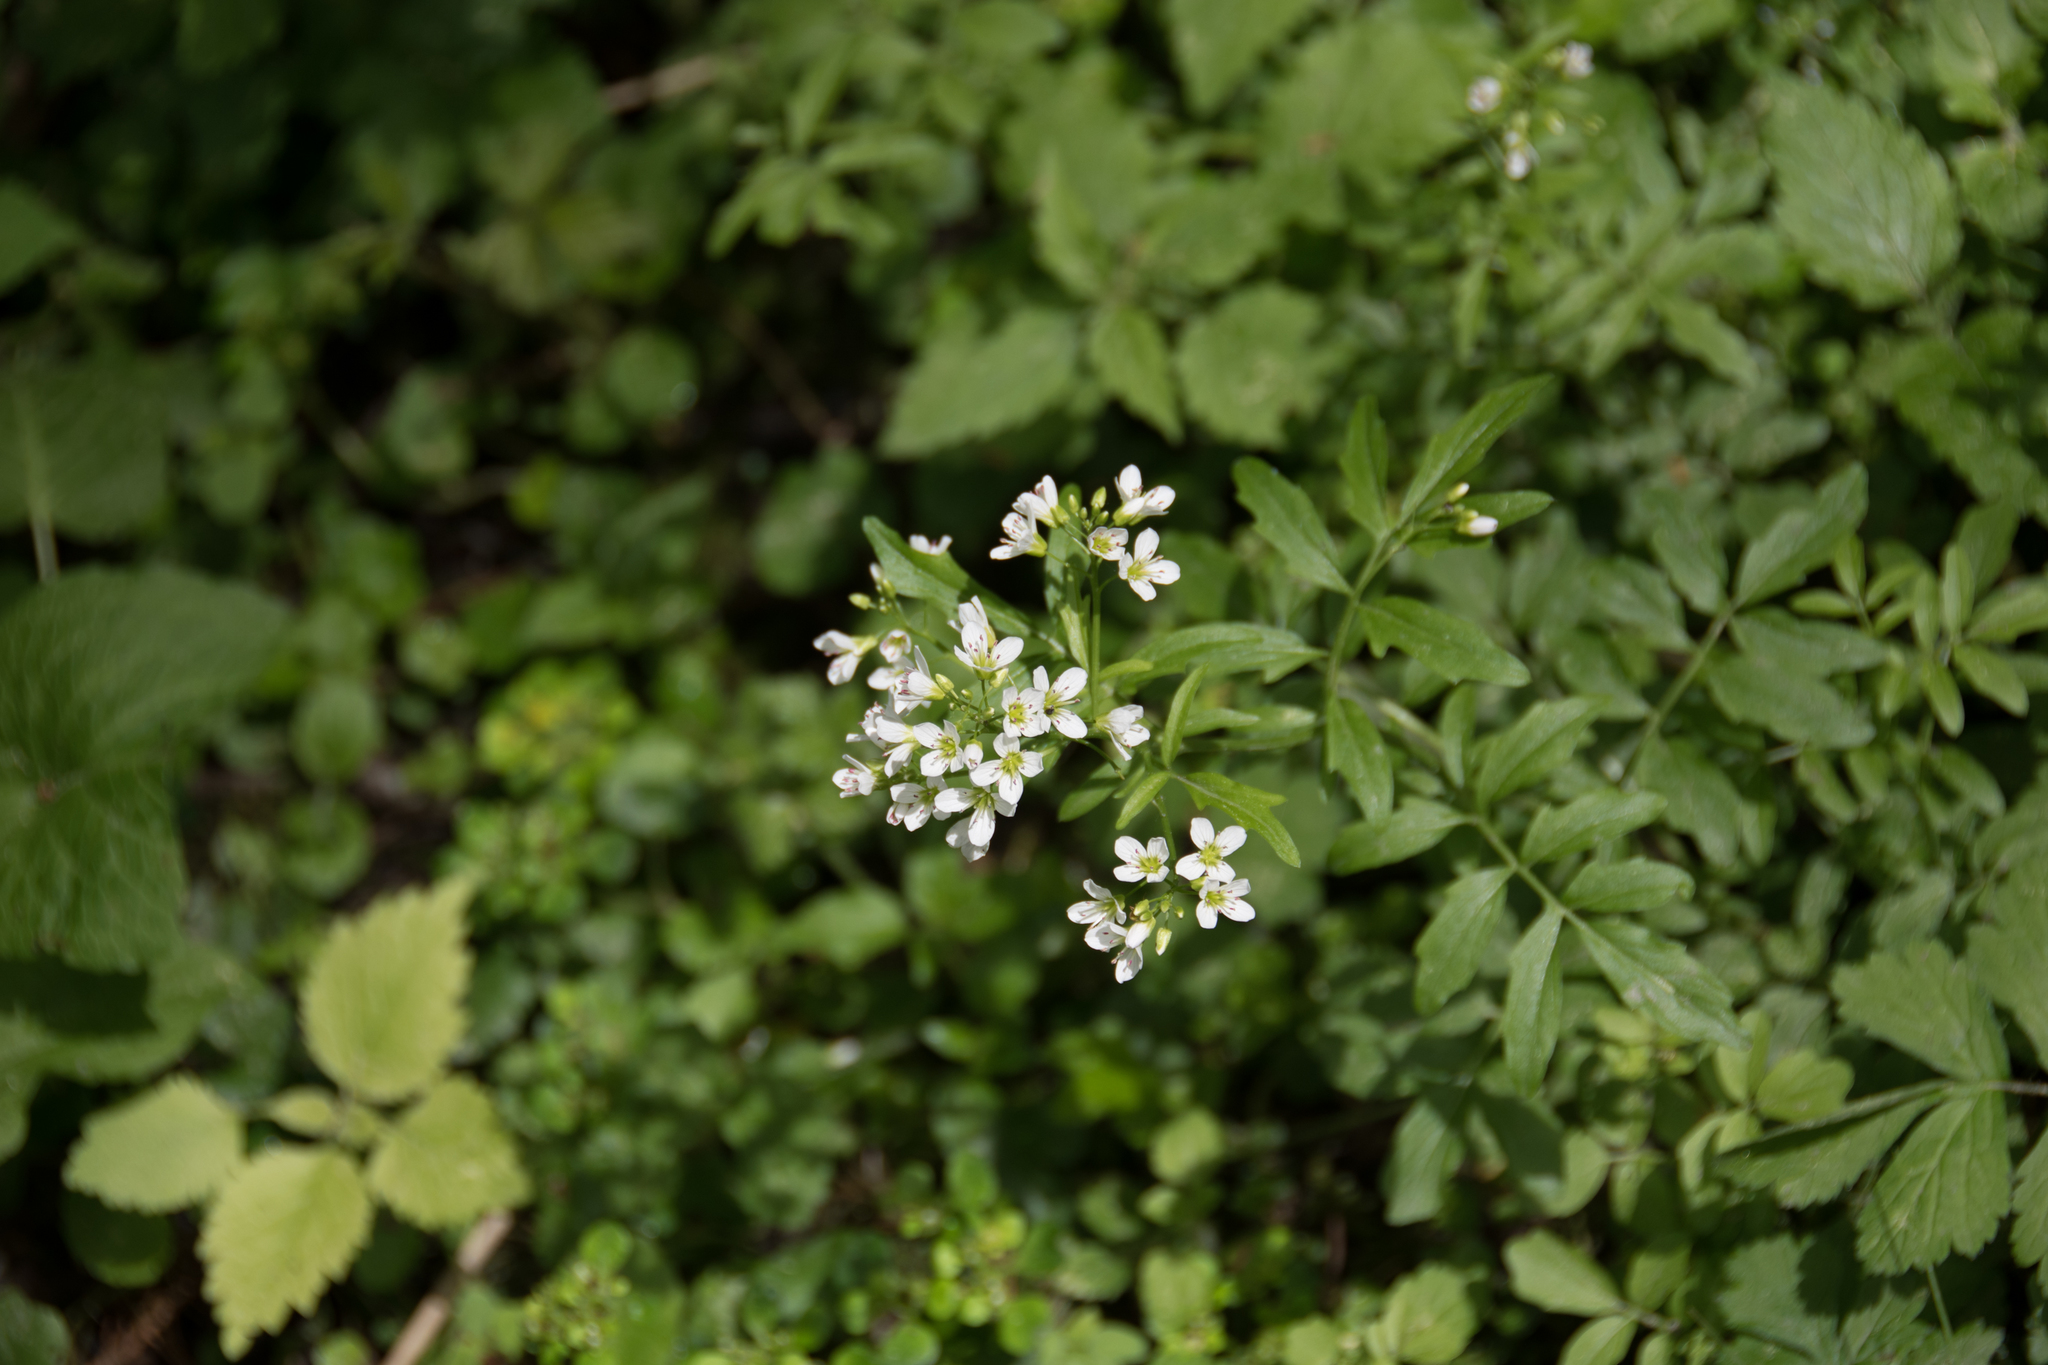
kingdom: Plantae
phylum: Tracheophyta
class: Magnoliopsida
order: Brassicales
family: Brassicaceae
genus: Cardamine
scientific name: Cardamine impatiens
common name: Narrow-leaved bitter-cress
